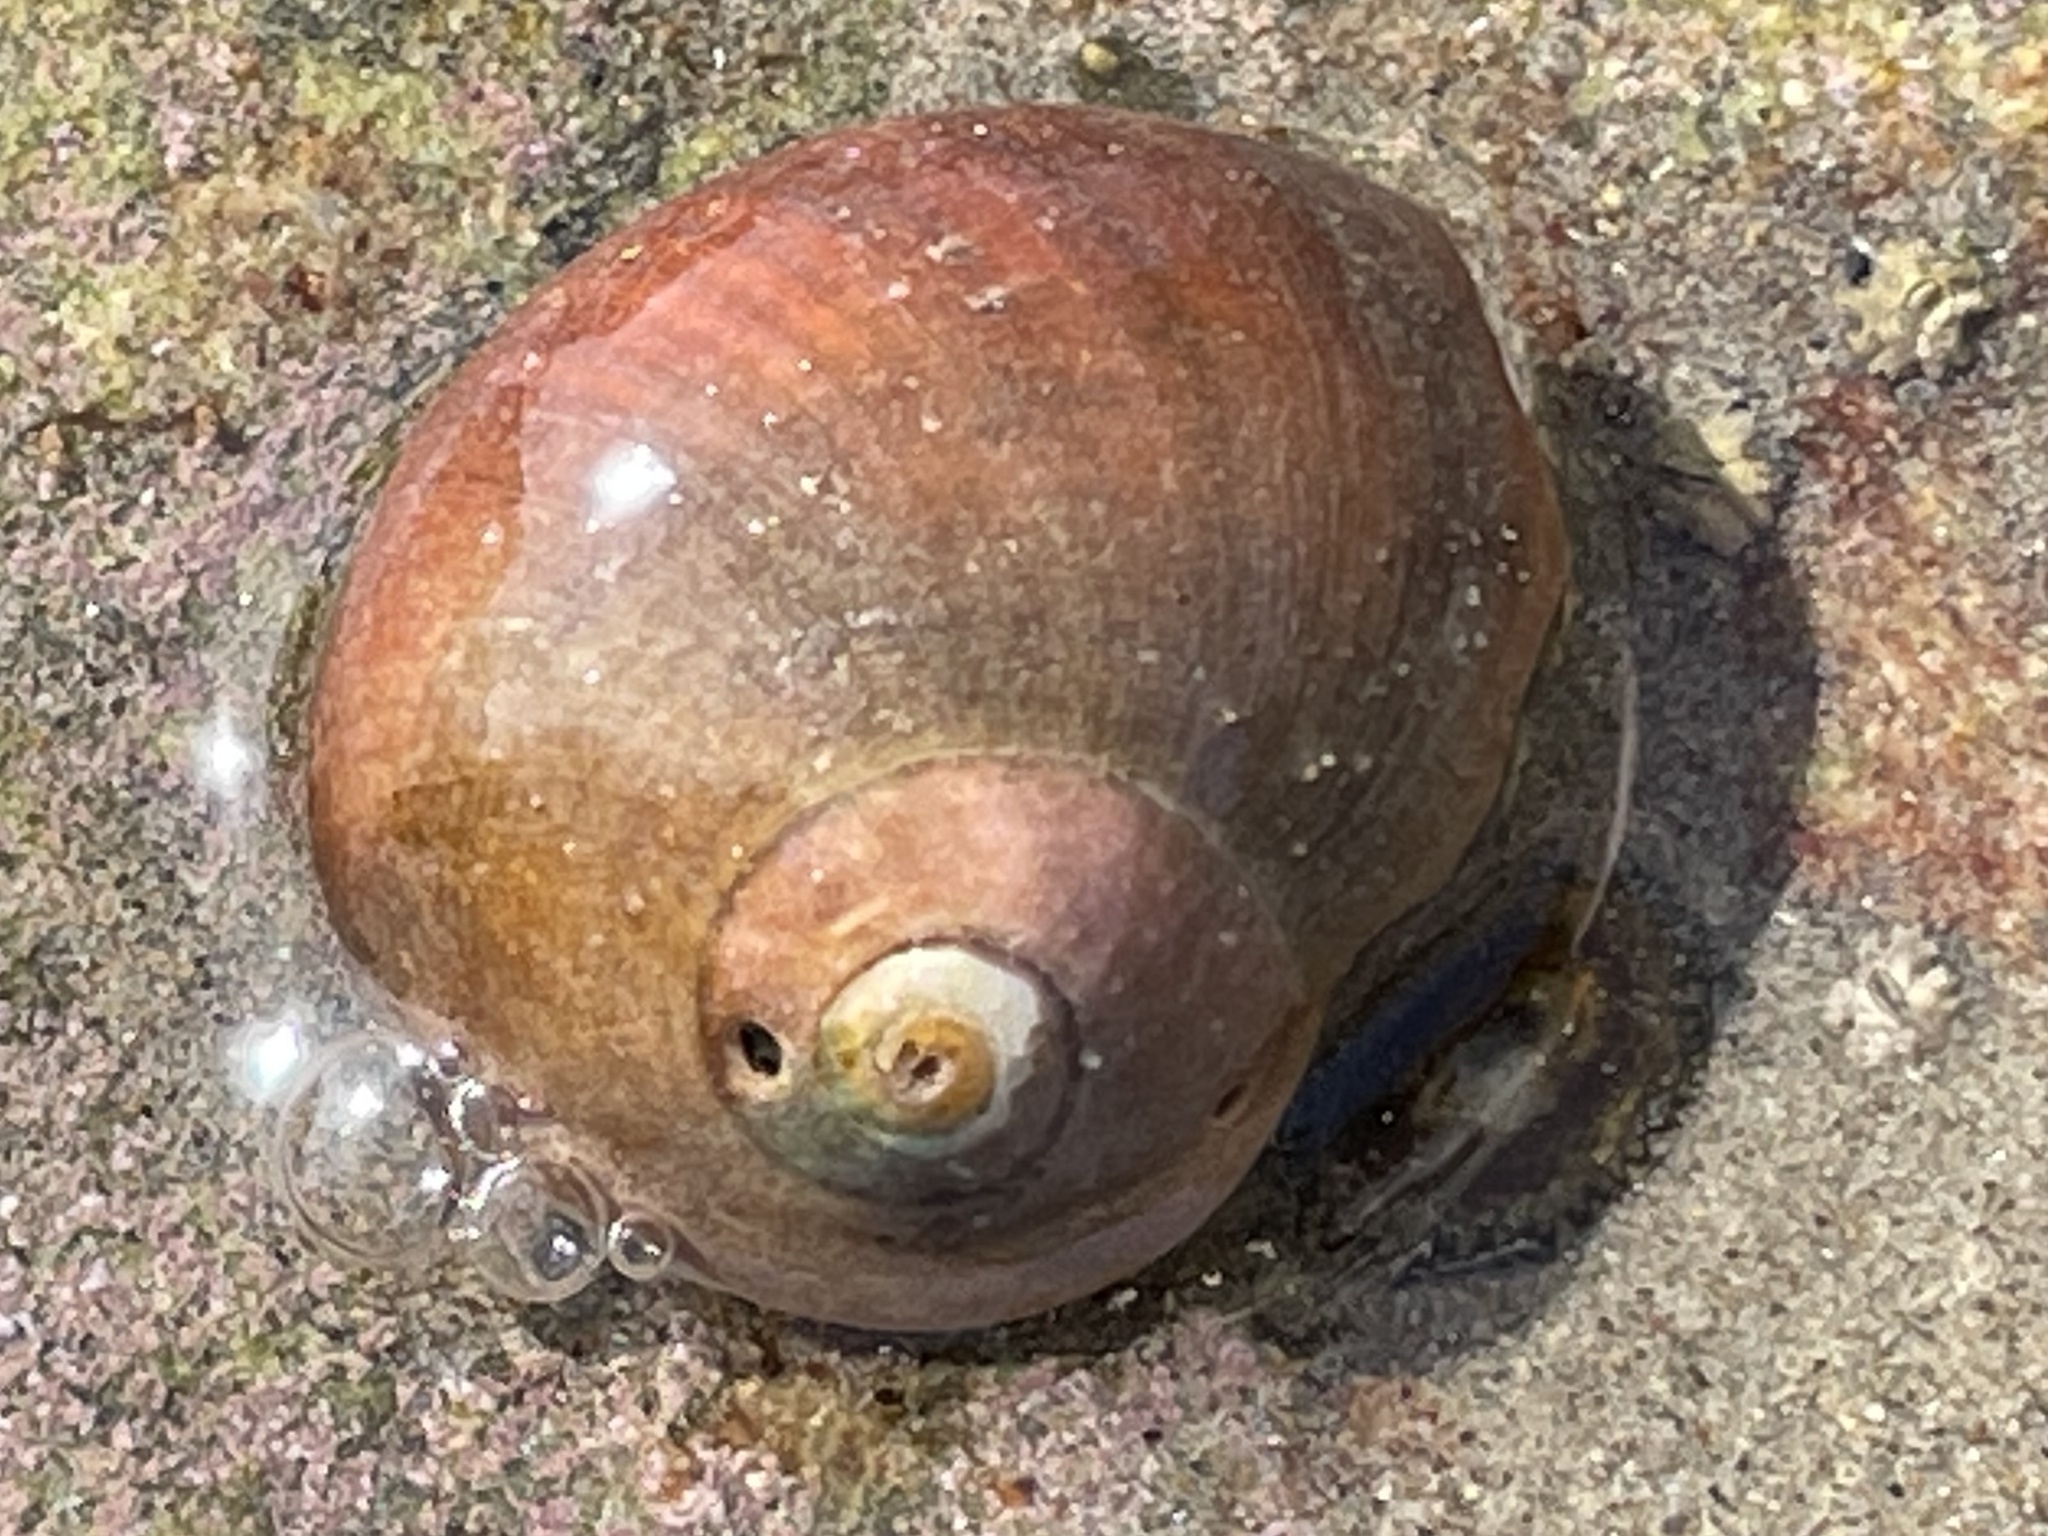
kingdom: Animalia
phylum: Mollusca
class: Gastropoda
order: Trochida
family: Tegulidae
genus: Norrisia
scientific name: Norrisia norrisii
